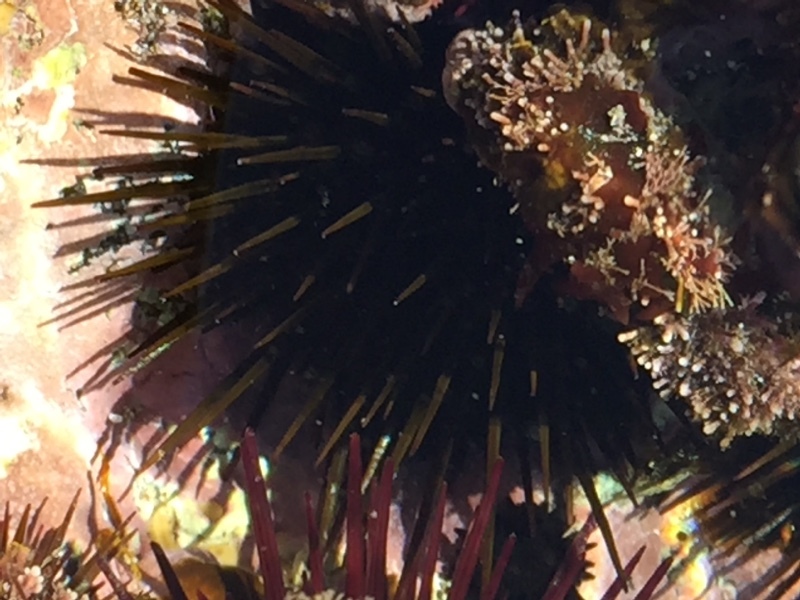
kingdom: Animalia
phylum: Echinodermata
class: Echinoidea
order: Camarodonta
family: Parechinidae
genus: Paracentrotus
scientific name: Paracentrotus lividus
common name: Purple sea urchin
